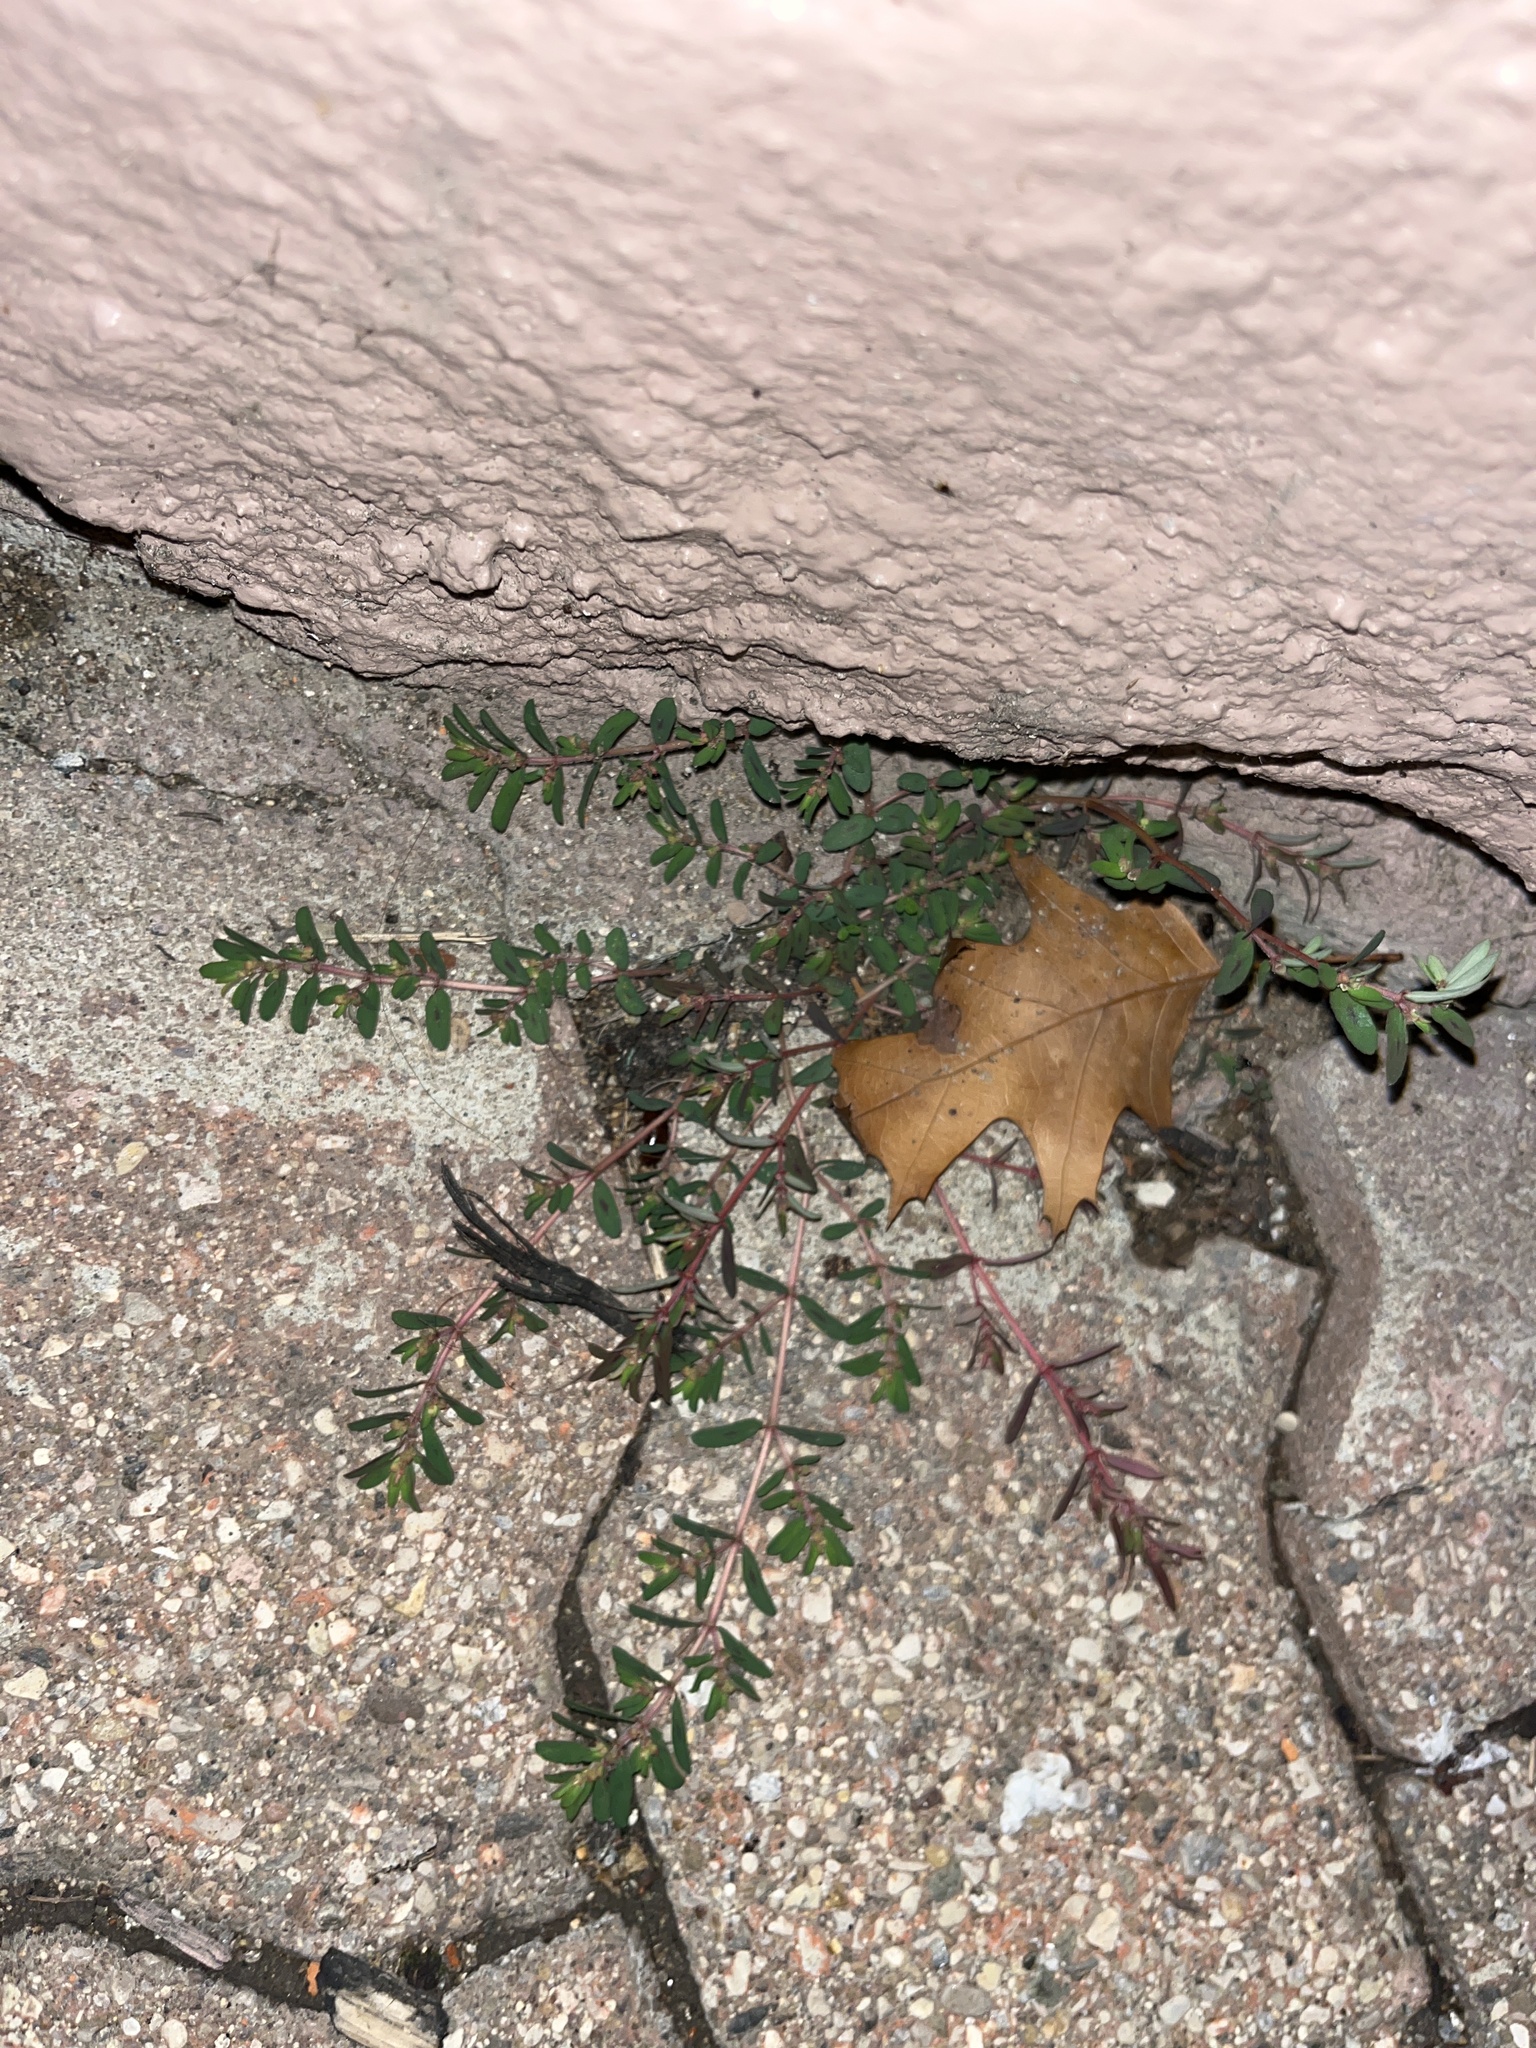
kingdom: Plantae
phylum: Tracheophyta
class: Magnoliopsida
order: Malpighiales
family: Euphorbiaceae
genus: Euphorbia
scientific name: Euphorbia maculata
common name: Spotted spurge
